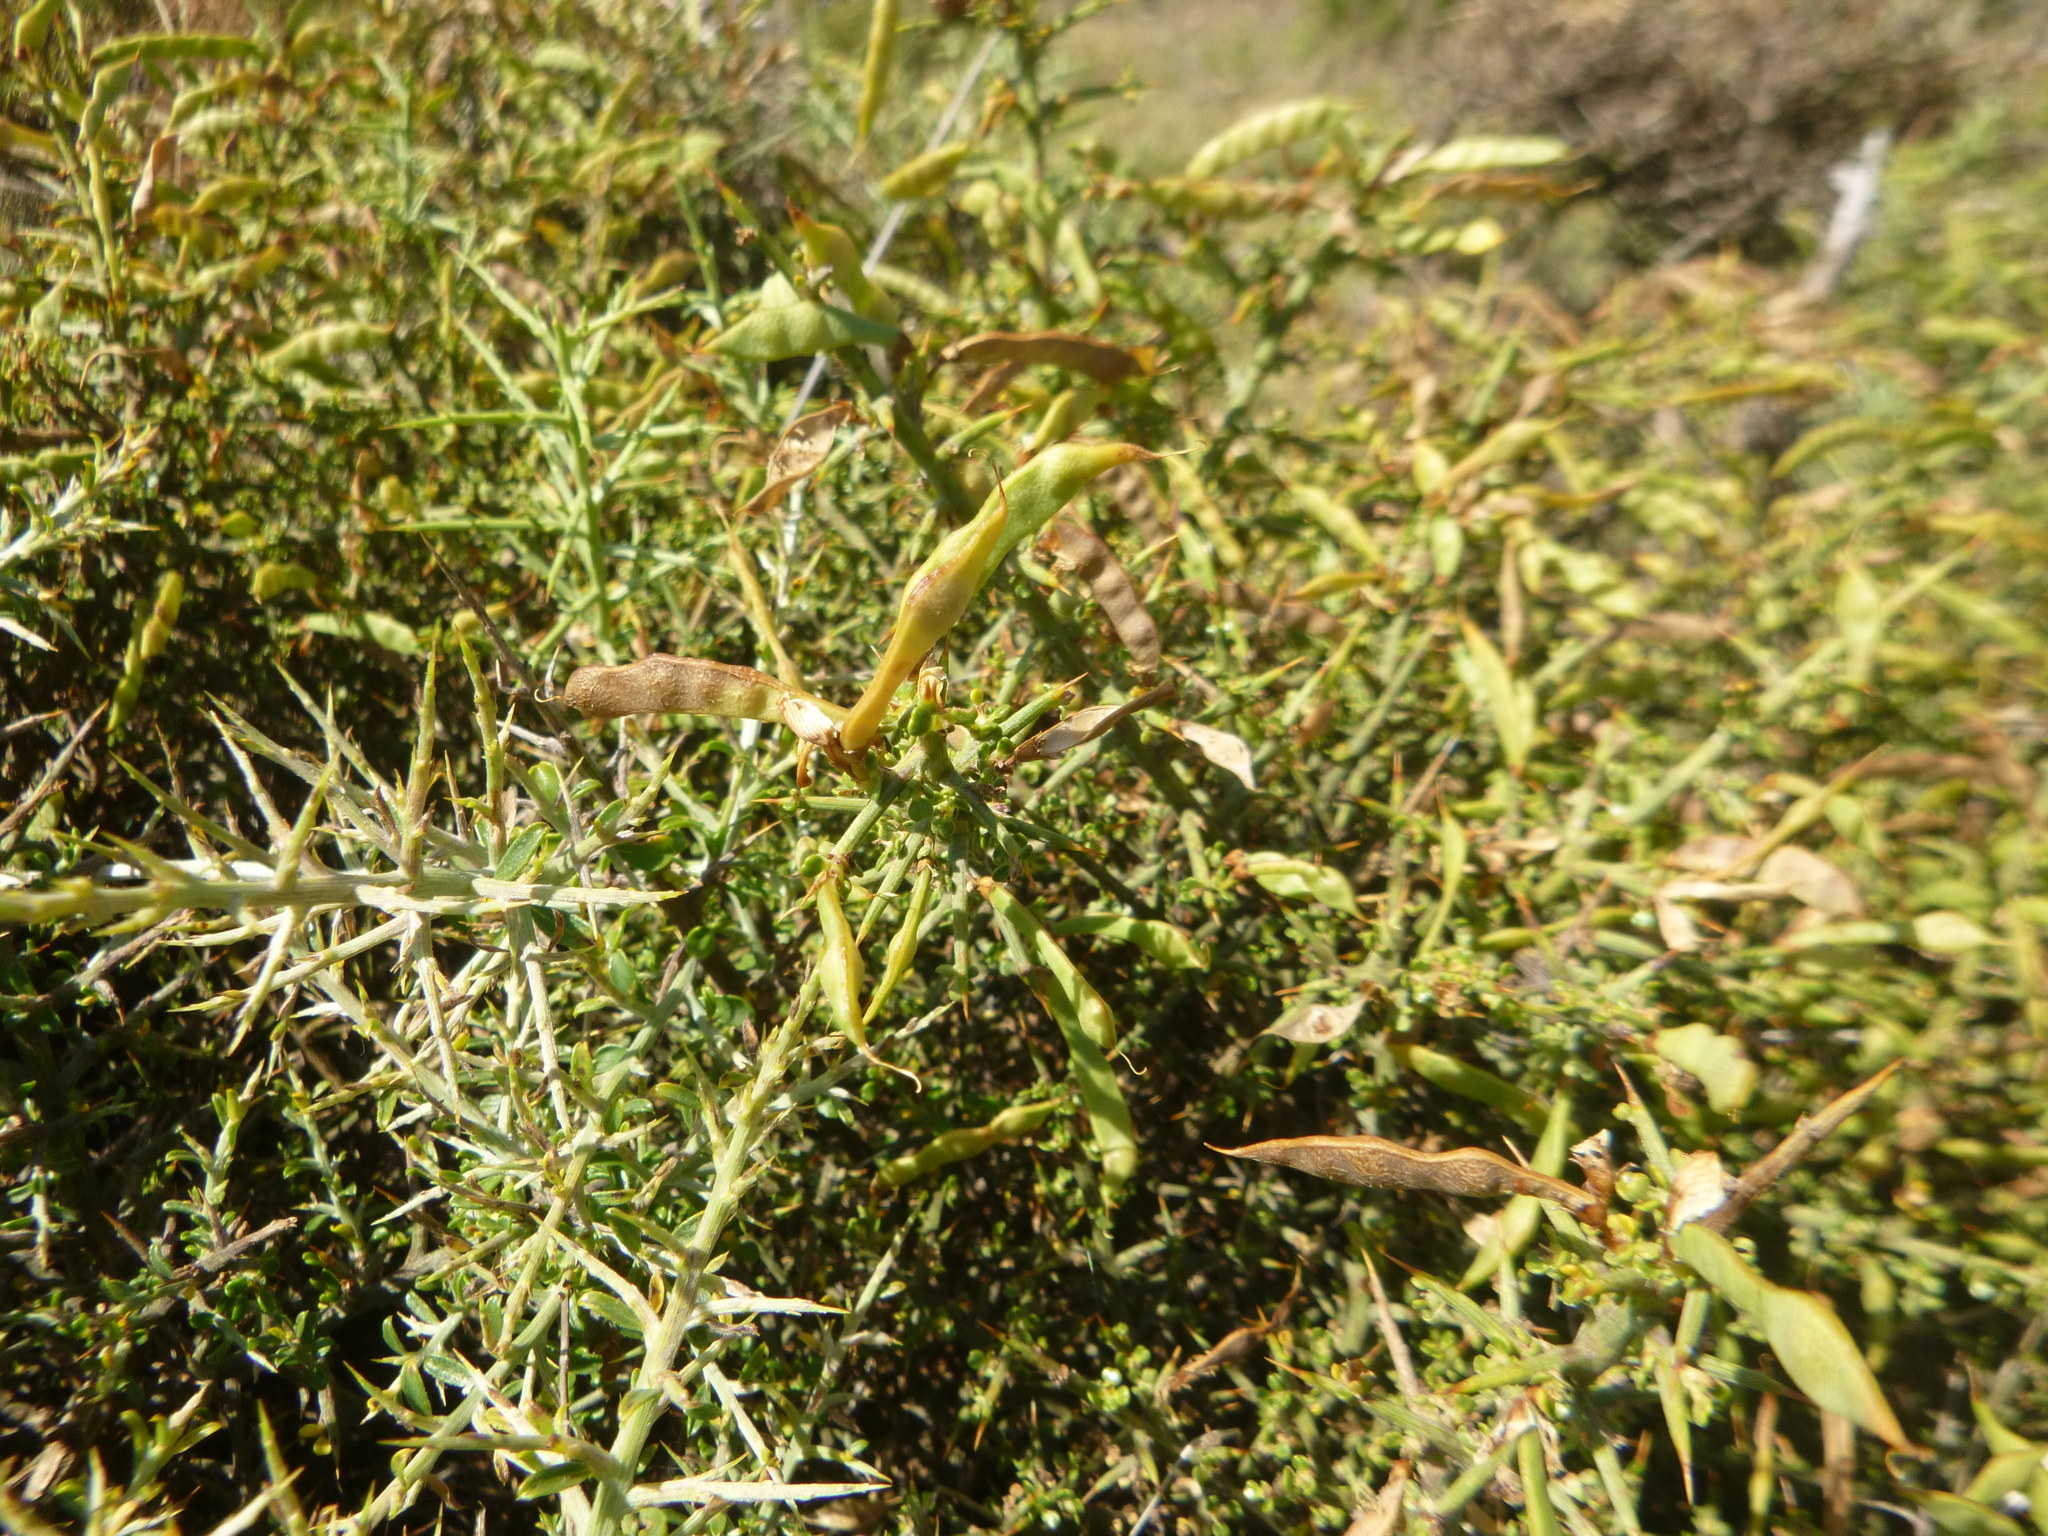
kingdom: Plantae
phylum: Tracheophyta
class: Magnoliopsida
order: Fabales
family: Fabaceae
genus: Genista
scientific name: Genista scorpius
